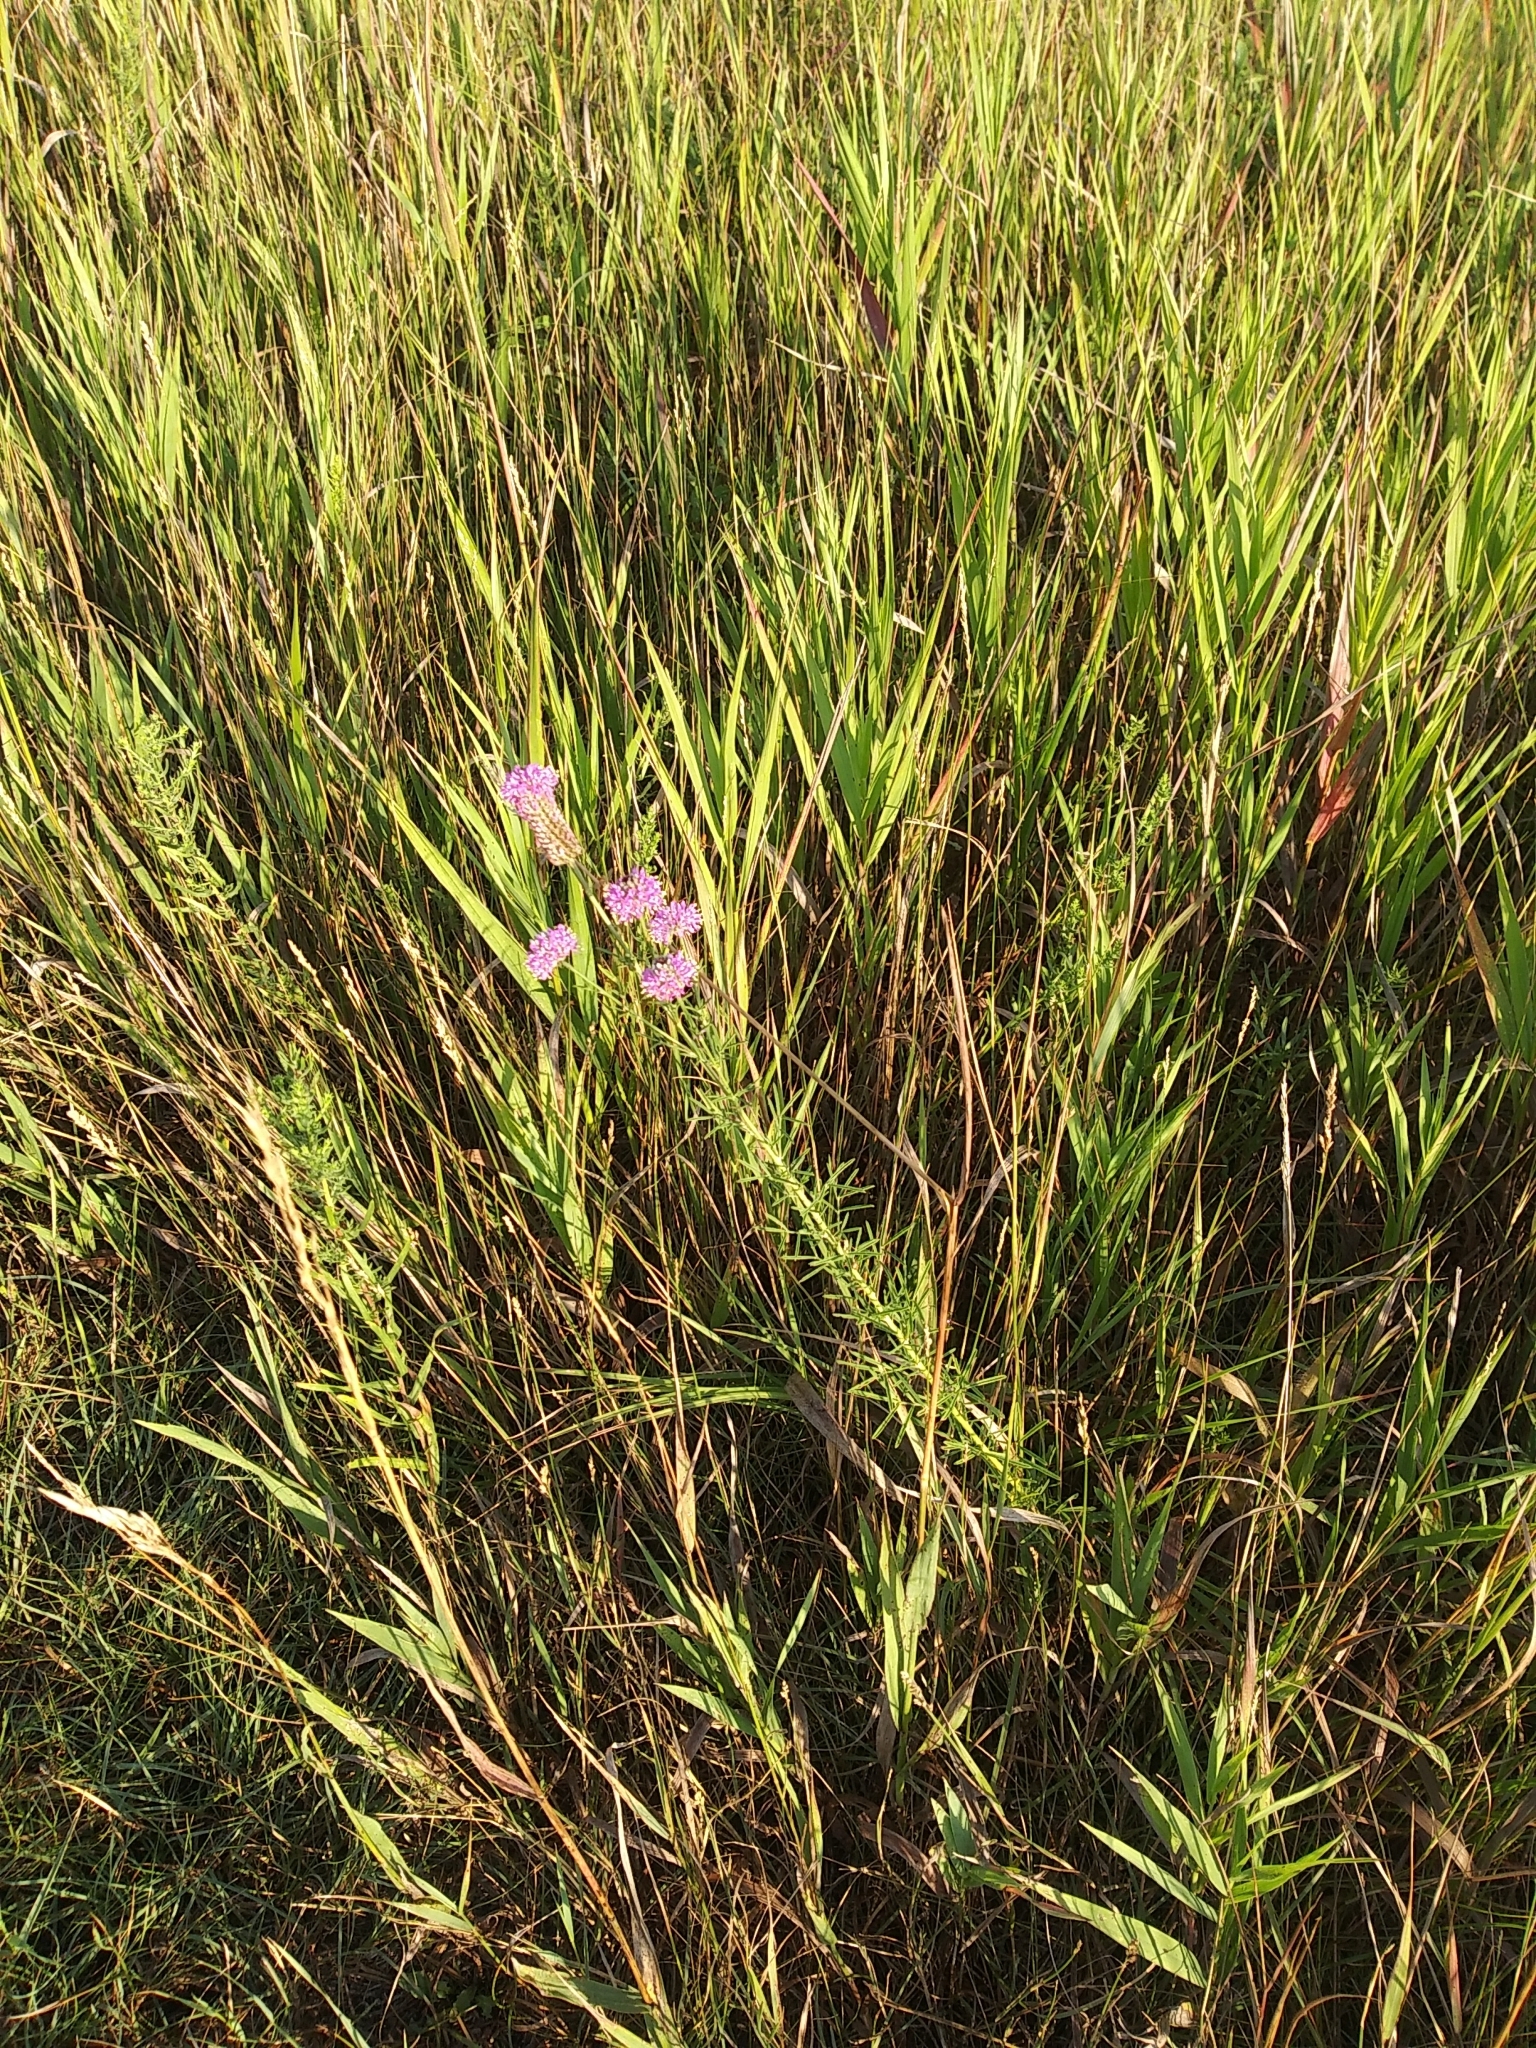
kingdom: Plantae
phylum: Tracheophyta
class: Magnoliopsida
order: Fabales
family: Fabaceae
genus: Dalea
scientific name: Dalea purpurea
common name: Purple prairie-clover
